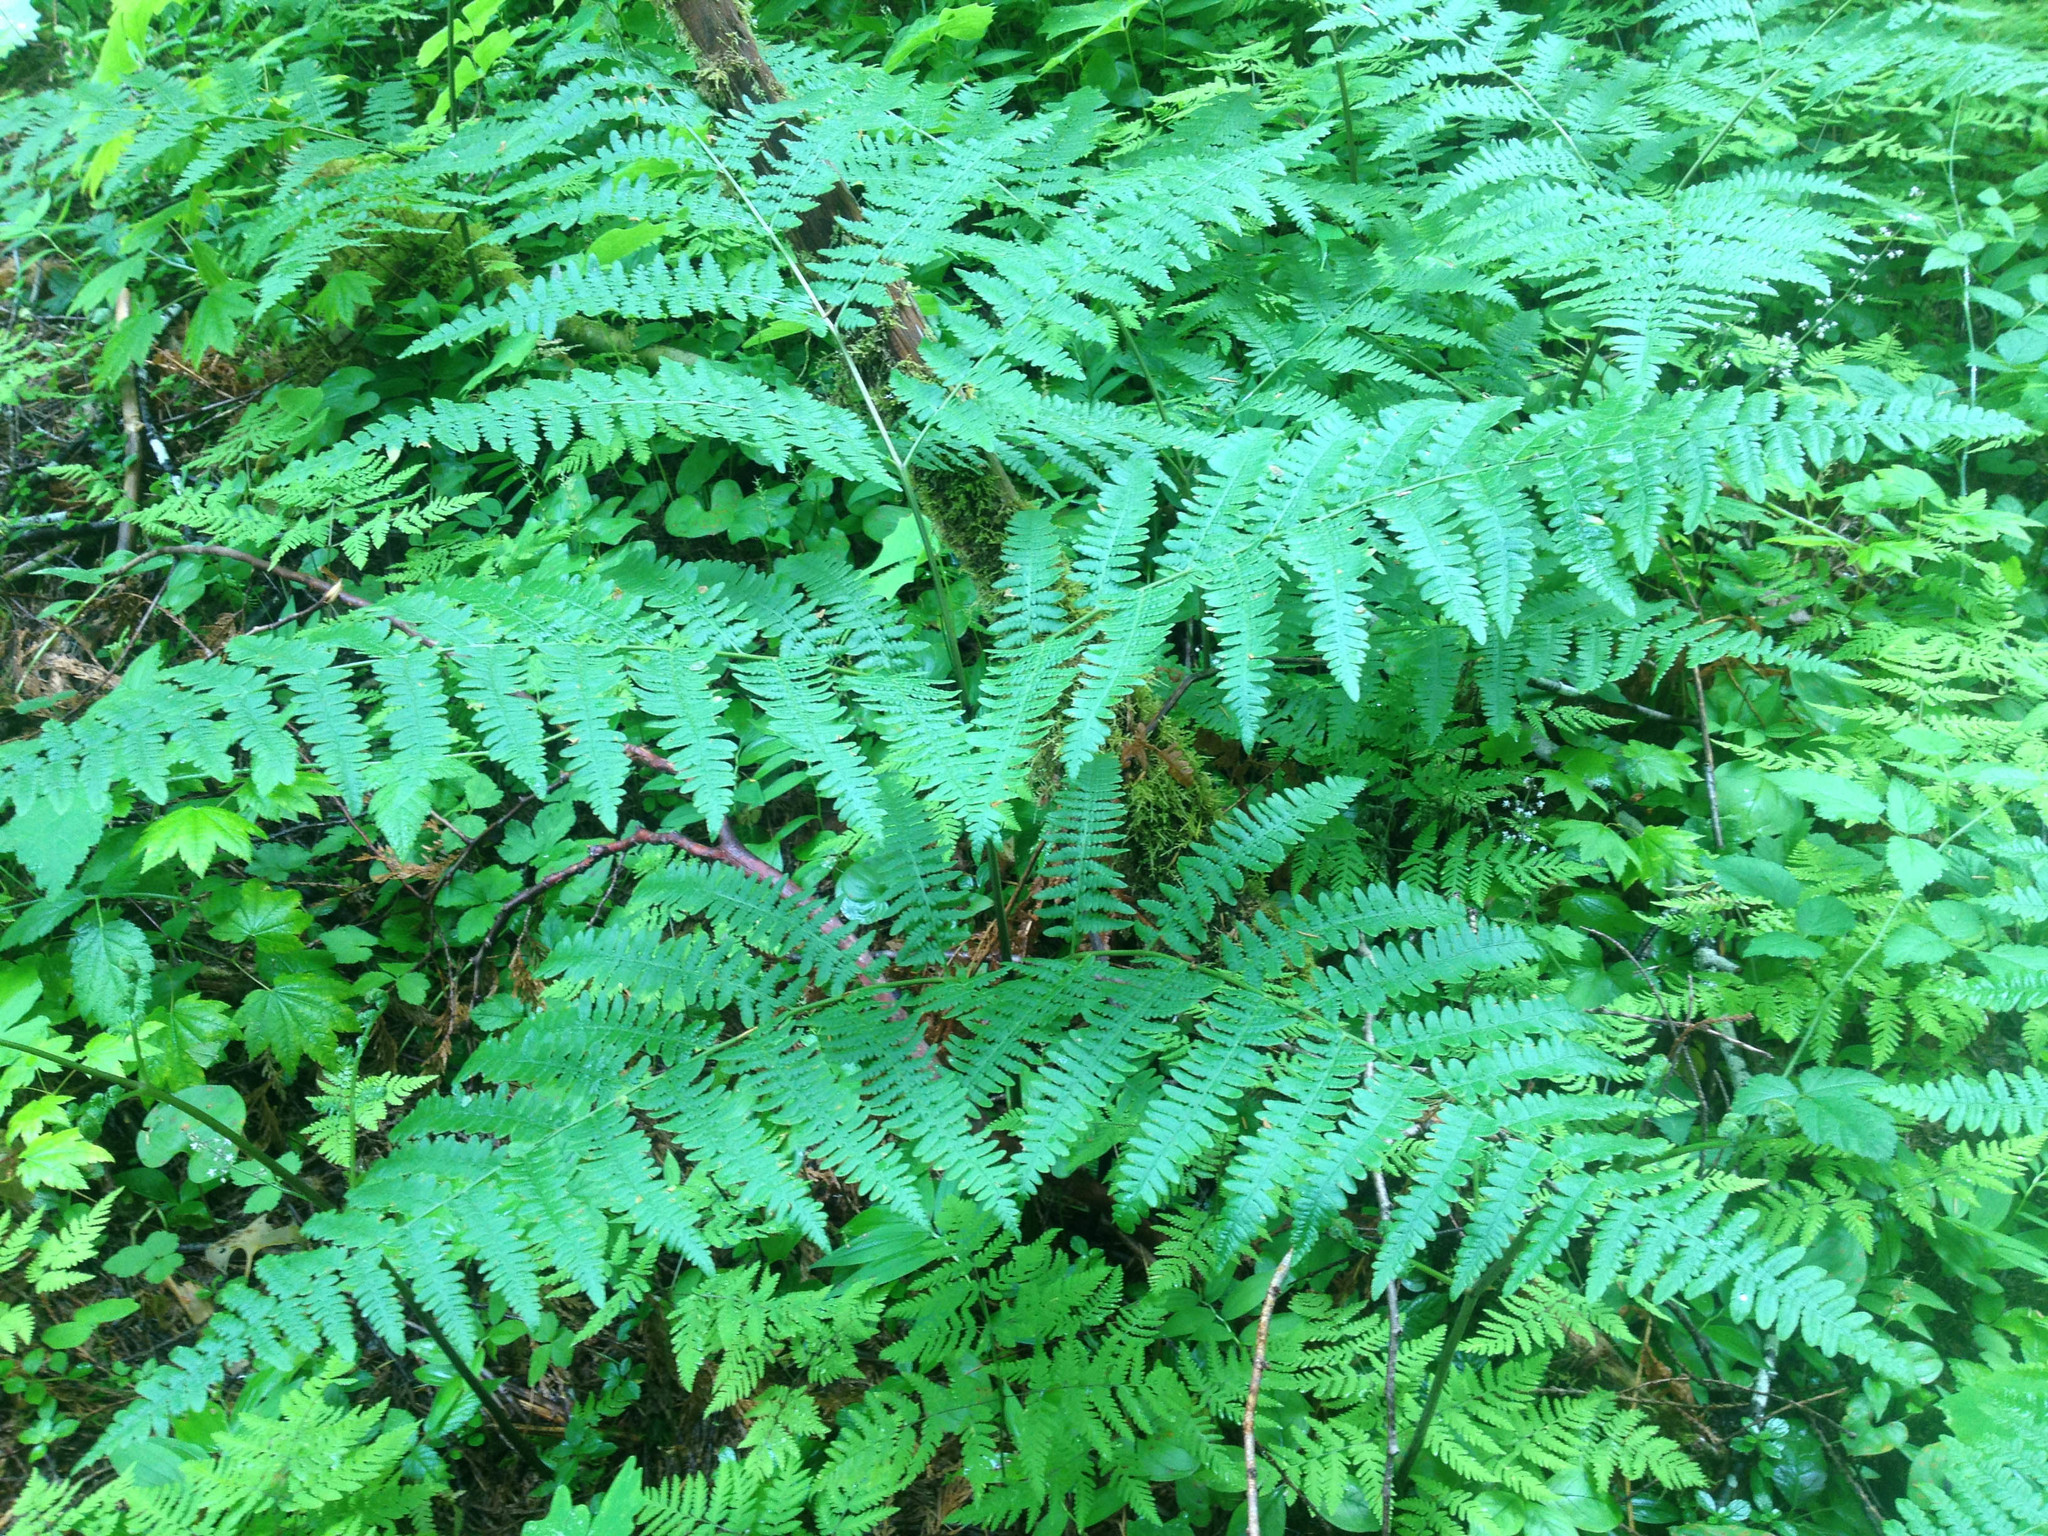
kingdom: Plantae
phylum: Tracheophyta
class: Polypodiopsida
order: Polypodiales
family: Dennstaedtiaceae
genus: Pteridium
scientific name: Pteridium aquilinum
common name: Bracken
